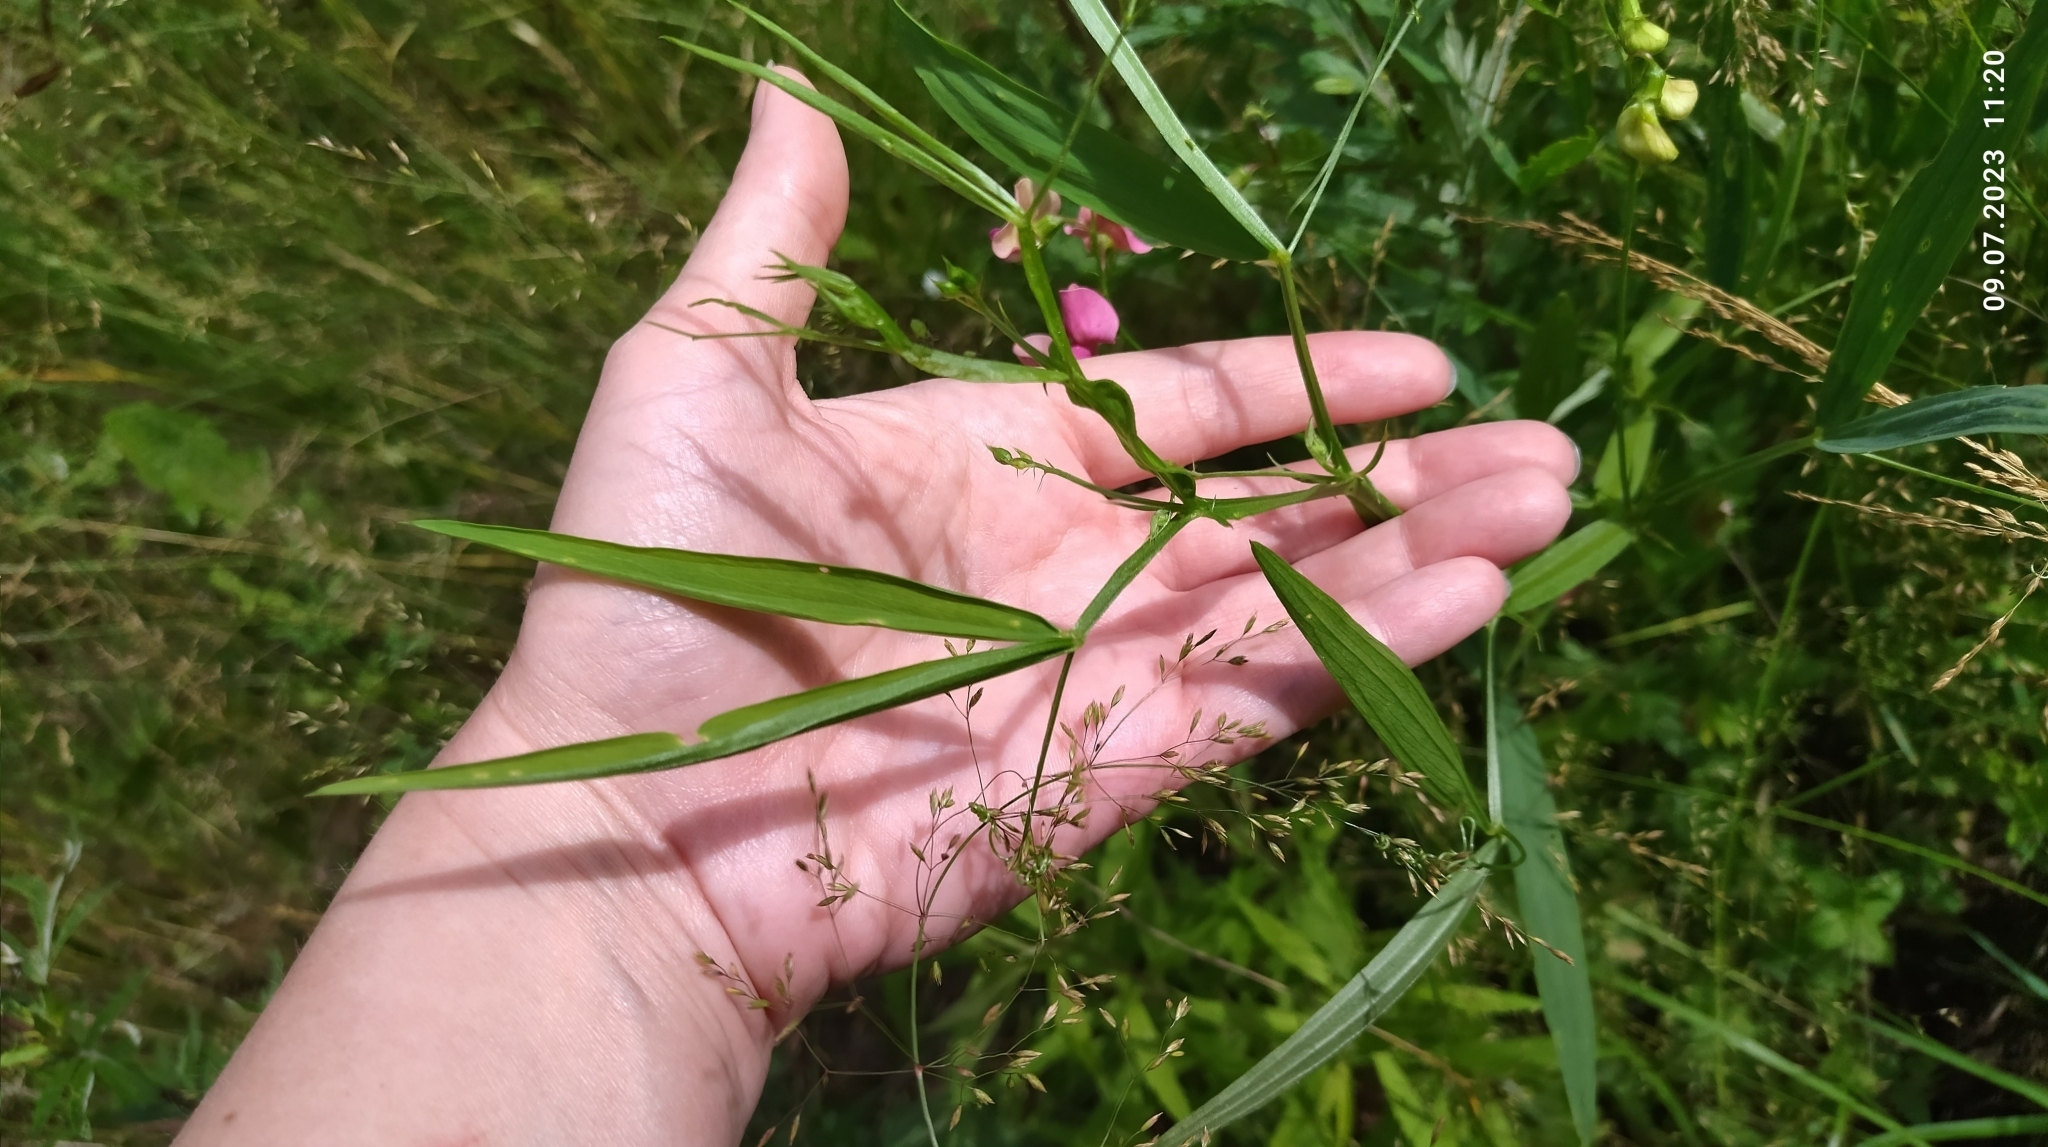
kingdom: Plantae
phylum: Tracheophyta
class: Magnoliopsida
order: Fabales
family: Fabaceae
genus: Lathyrus
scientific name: Lathyrus sylvestris
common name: Flat pea
